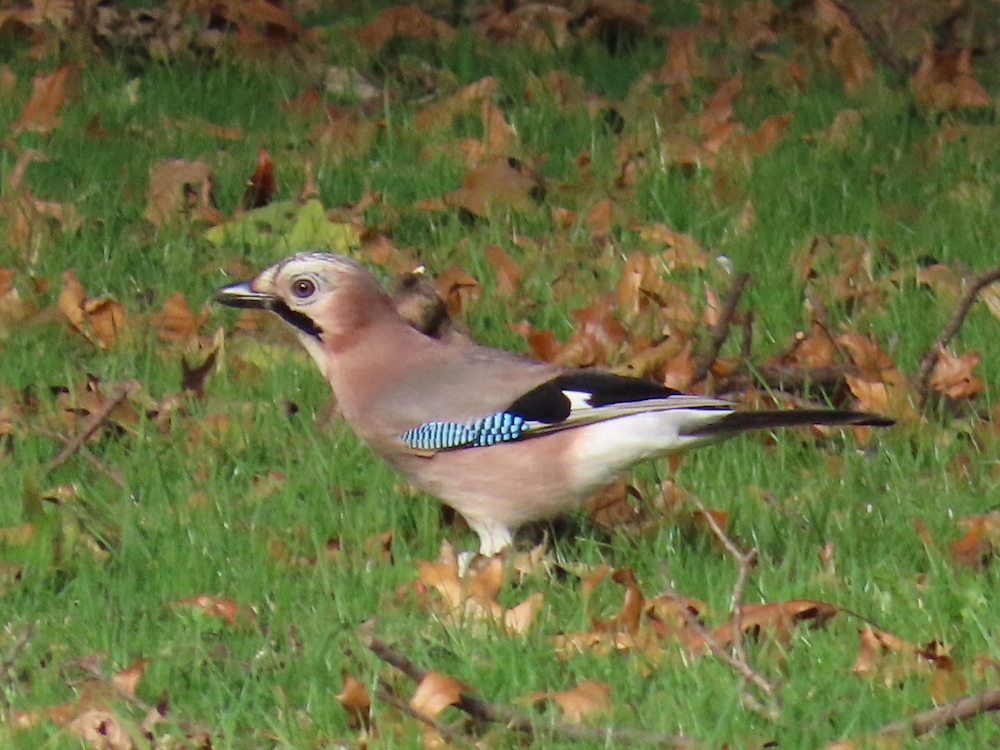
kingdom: Animalia
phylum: Chordata
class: Aves
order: Passeriformes
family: Corvidae
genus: Garrulus
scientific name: Garrulus glandarius
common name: Eurasian jay
